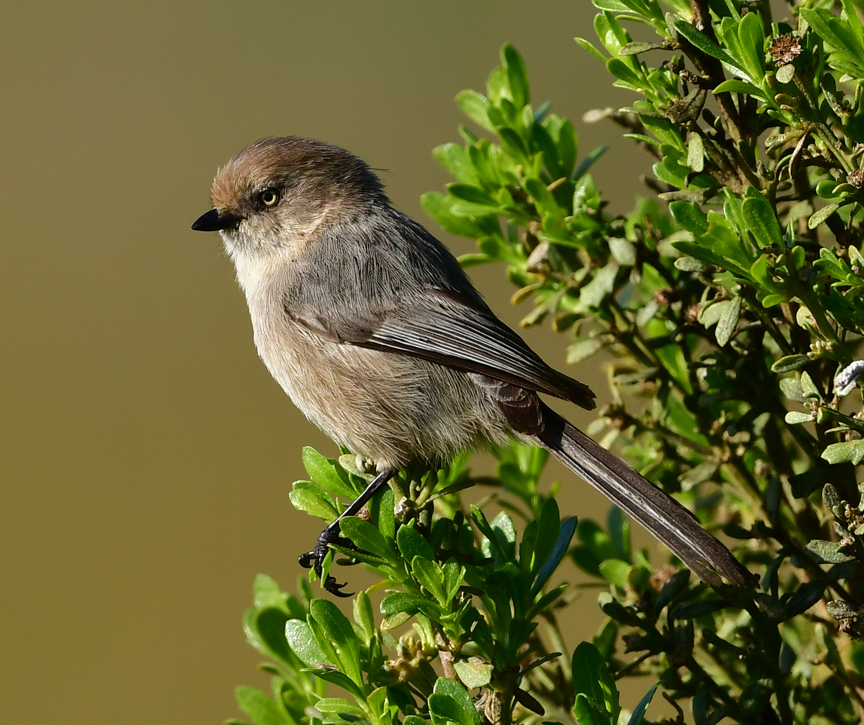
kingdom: Animalia
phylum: Chordata
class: Aves
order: Passeriformes
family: Aegithalidae
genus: Psaltriparus
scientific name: Psaltriparus minimus
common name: American bushtit
